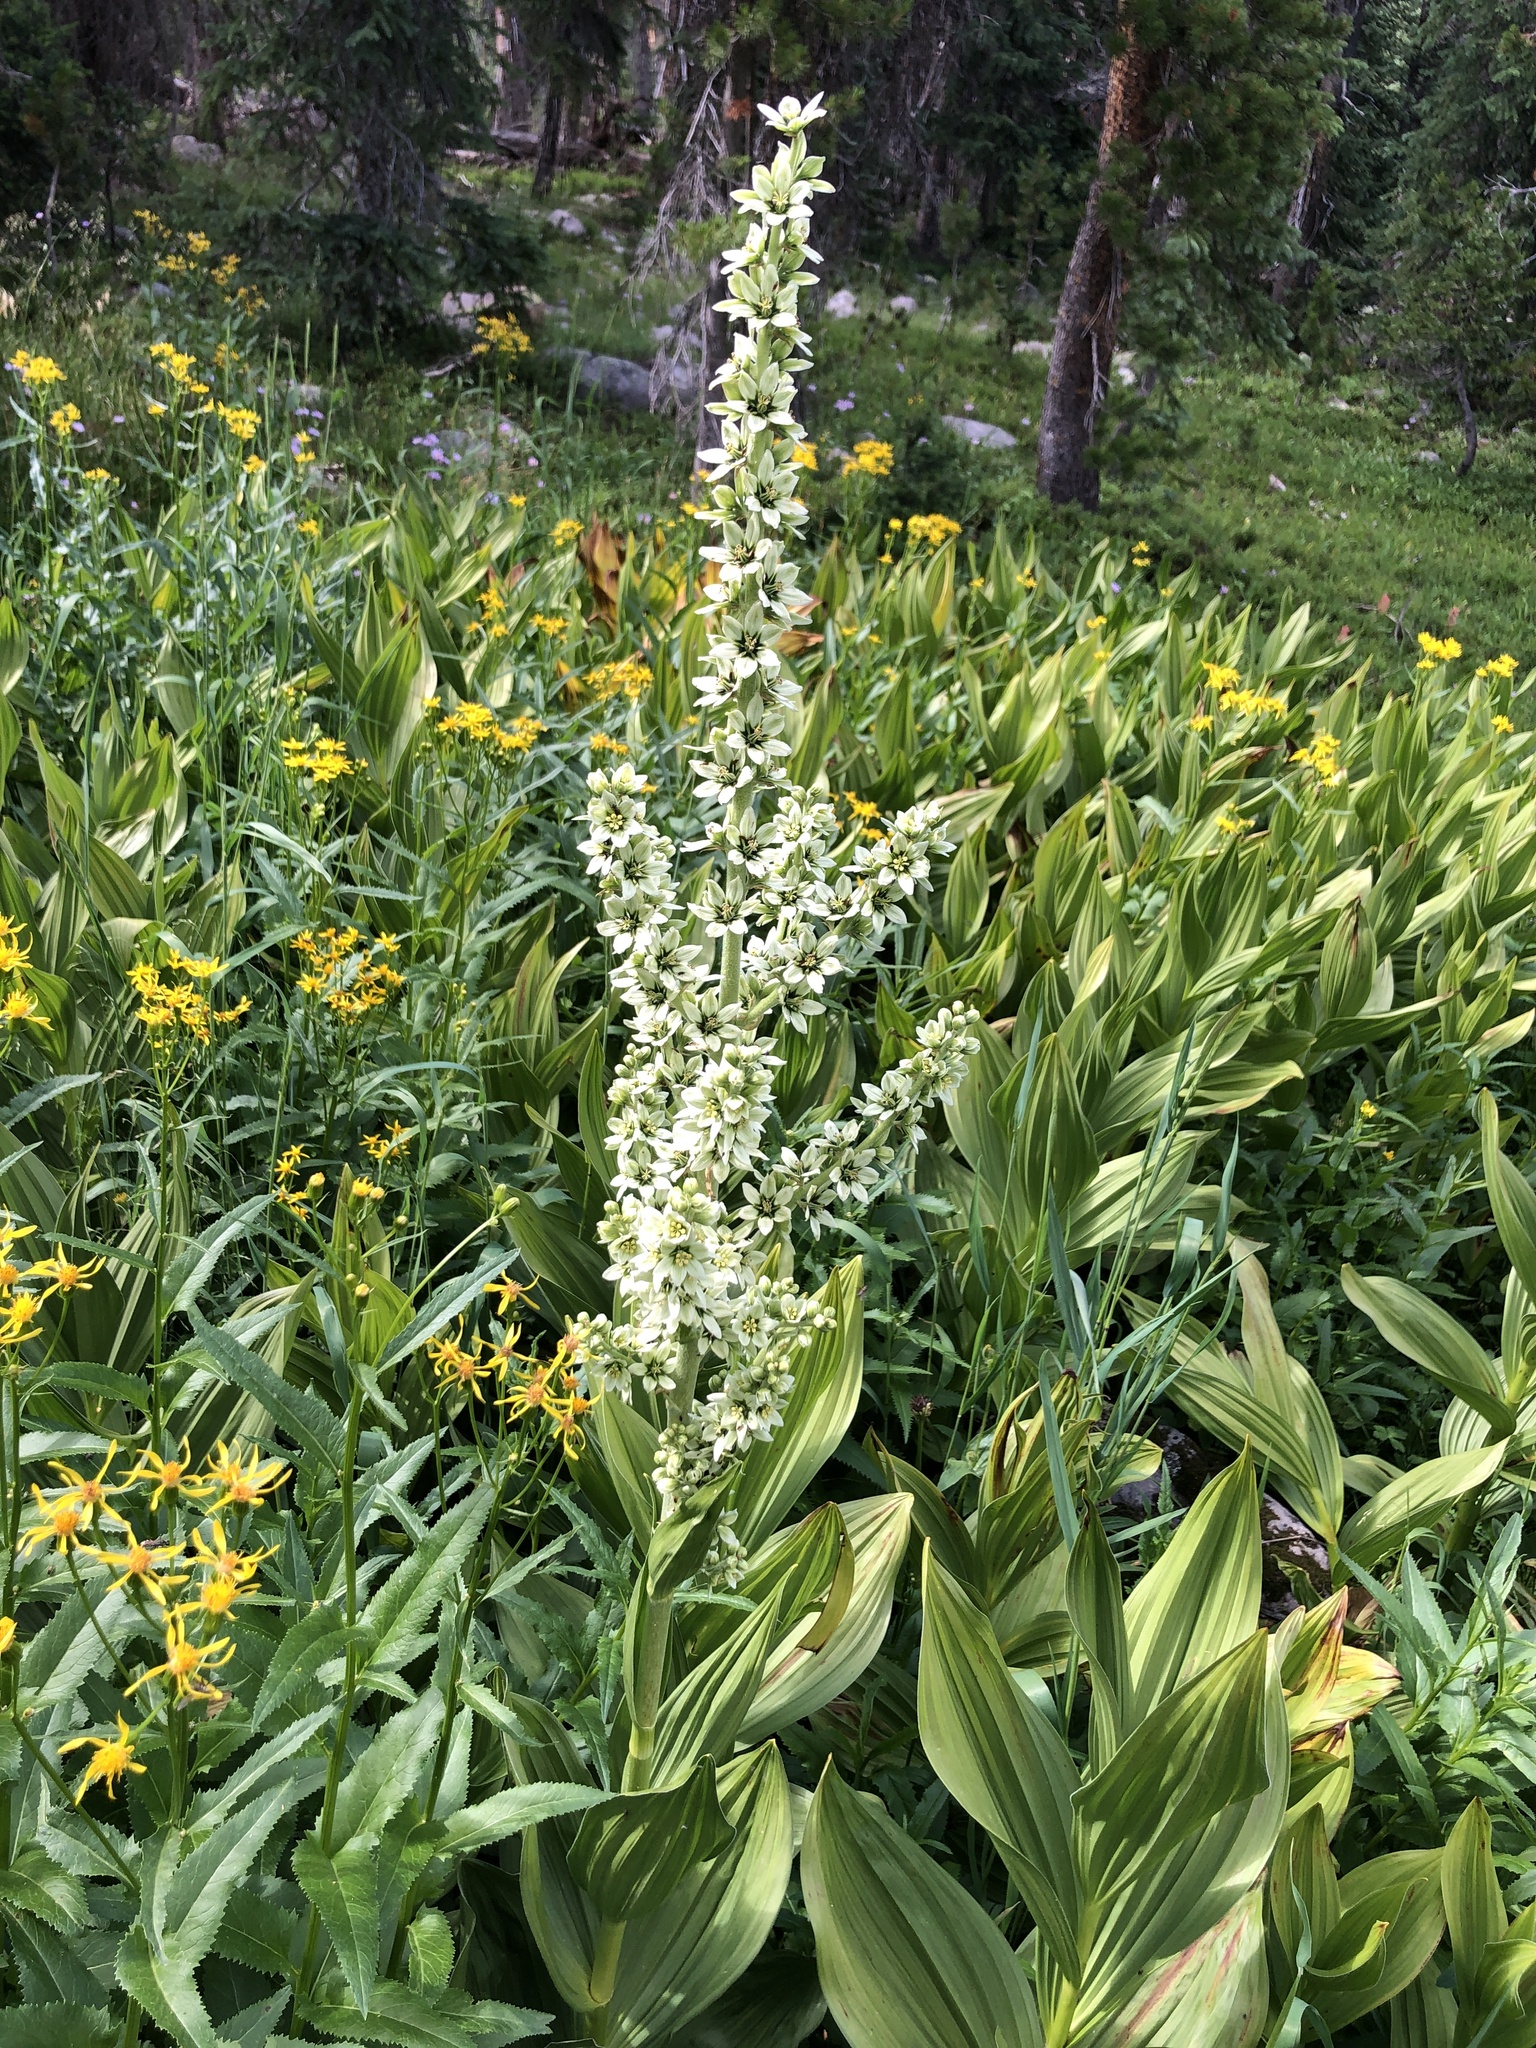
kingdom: Plantae
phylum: Tracheophyta
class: Liliopsida
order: Liliales
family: Melanthiaceae
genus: Veratrum
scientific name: Veratrum californicum
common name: California veratrum
